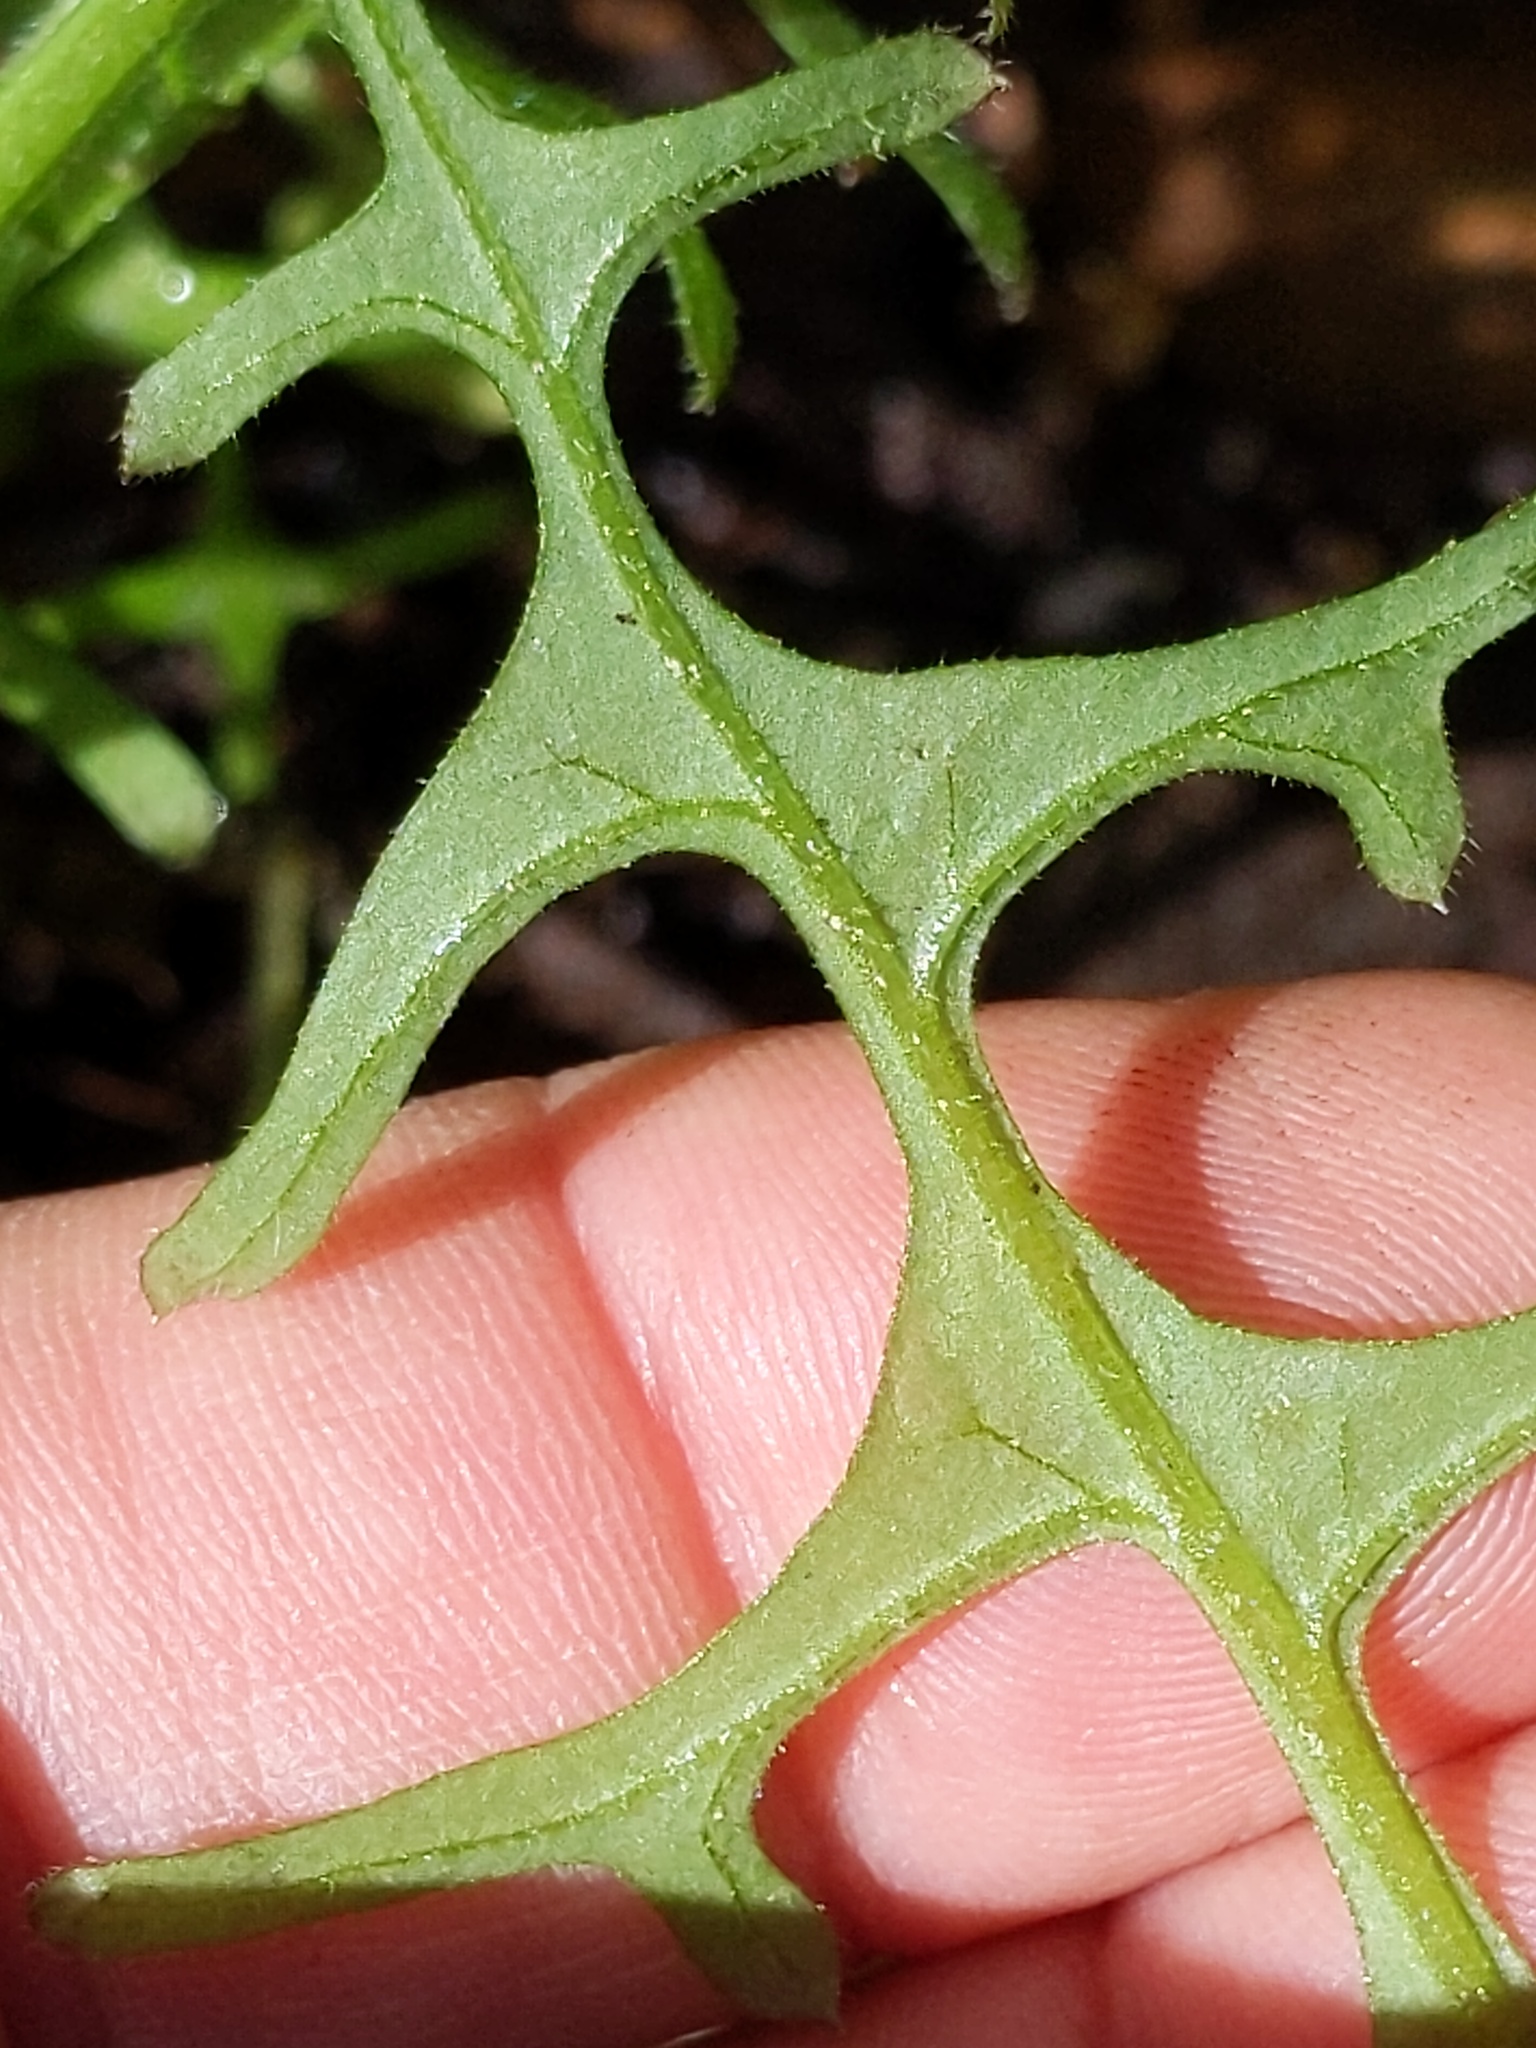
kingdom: Plantae
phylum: Tracheophyta
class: Magnoliopsida
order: Boraginales
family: Hydrophyllaceae
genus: Pholistoma
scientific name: Pholistoma auritum
